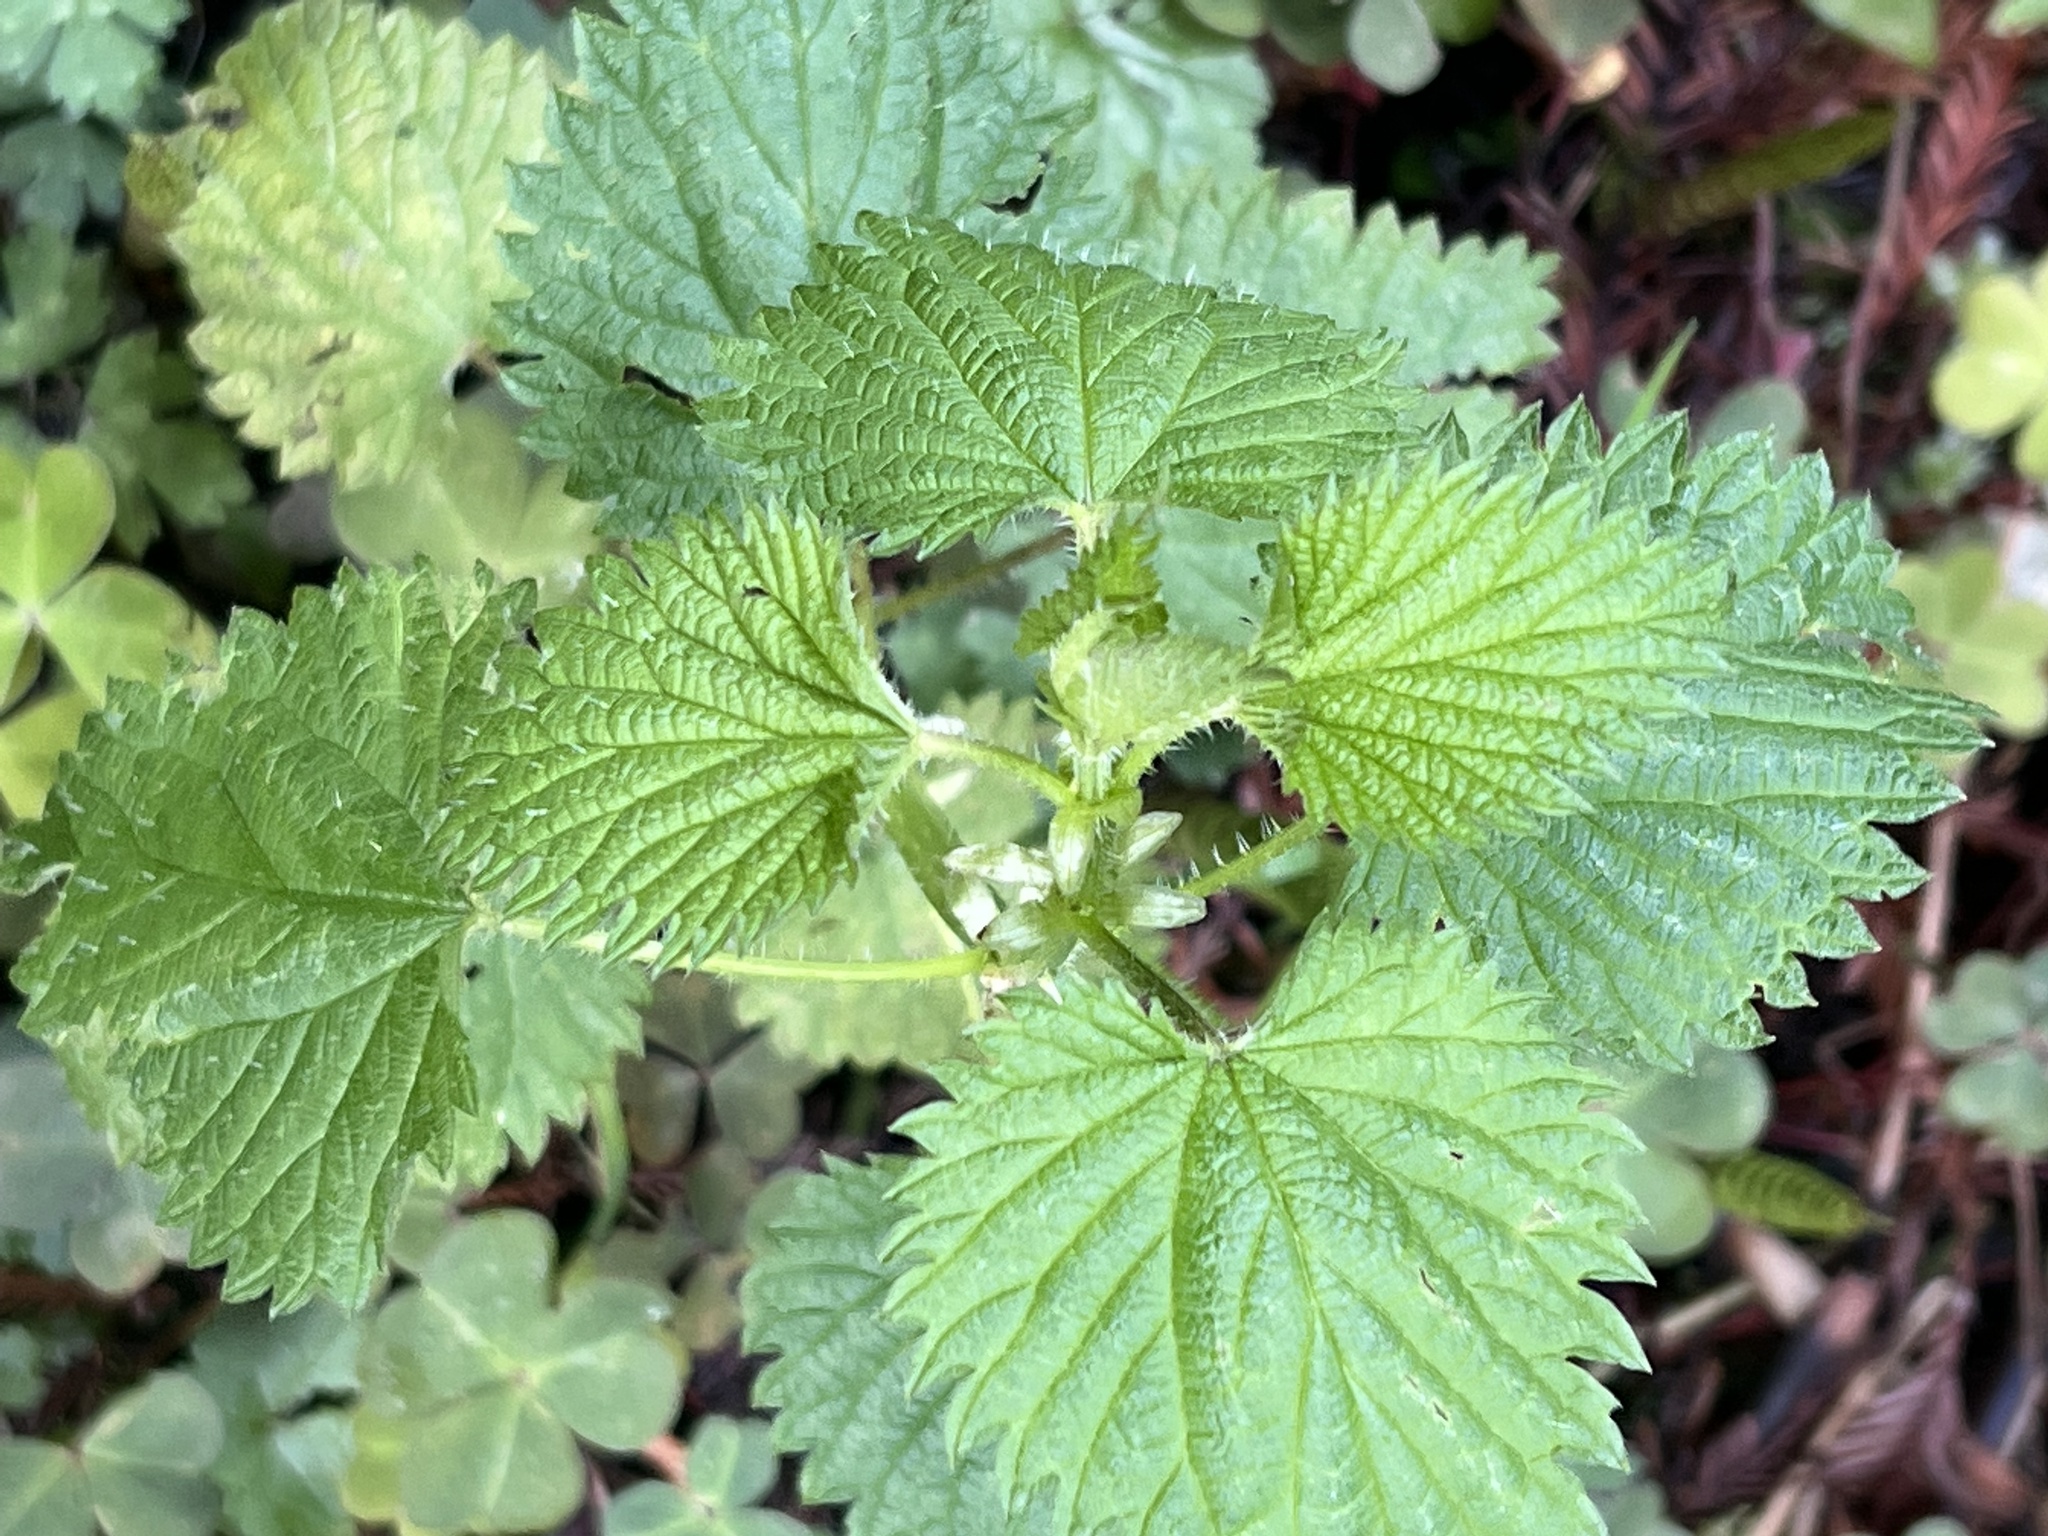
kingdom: Plantae
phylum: Tracheophyta
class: Magnoliopsida
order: Rosales
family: Urticaceae
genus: Urtica
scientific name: Urtica dioica
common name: Common nettle
